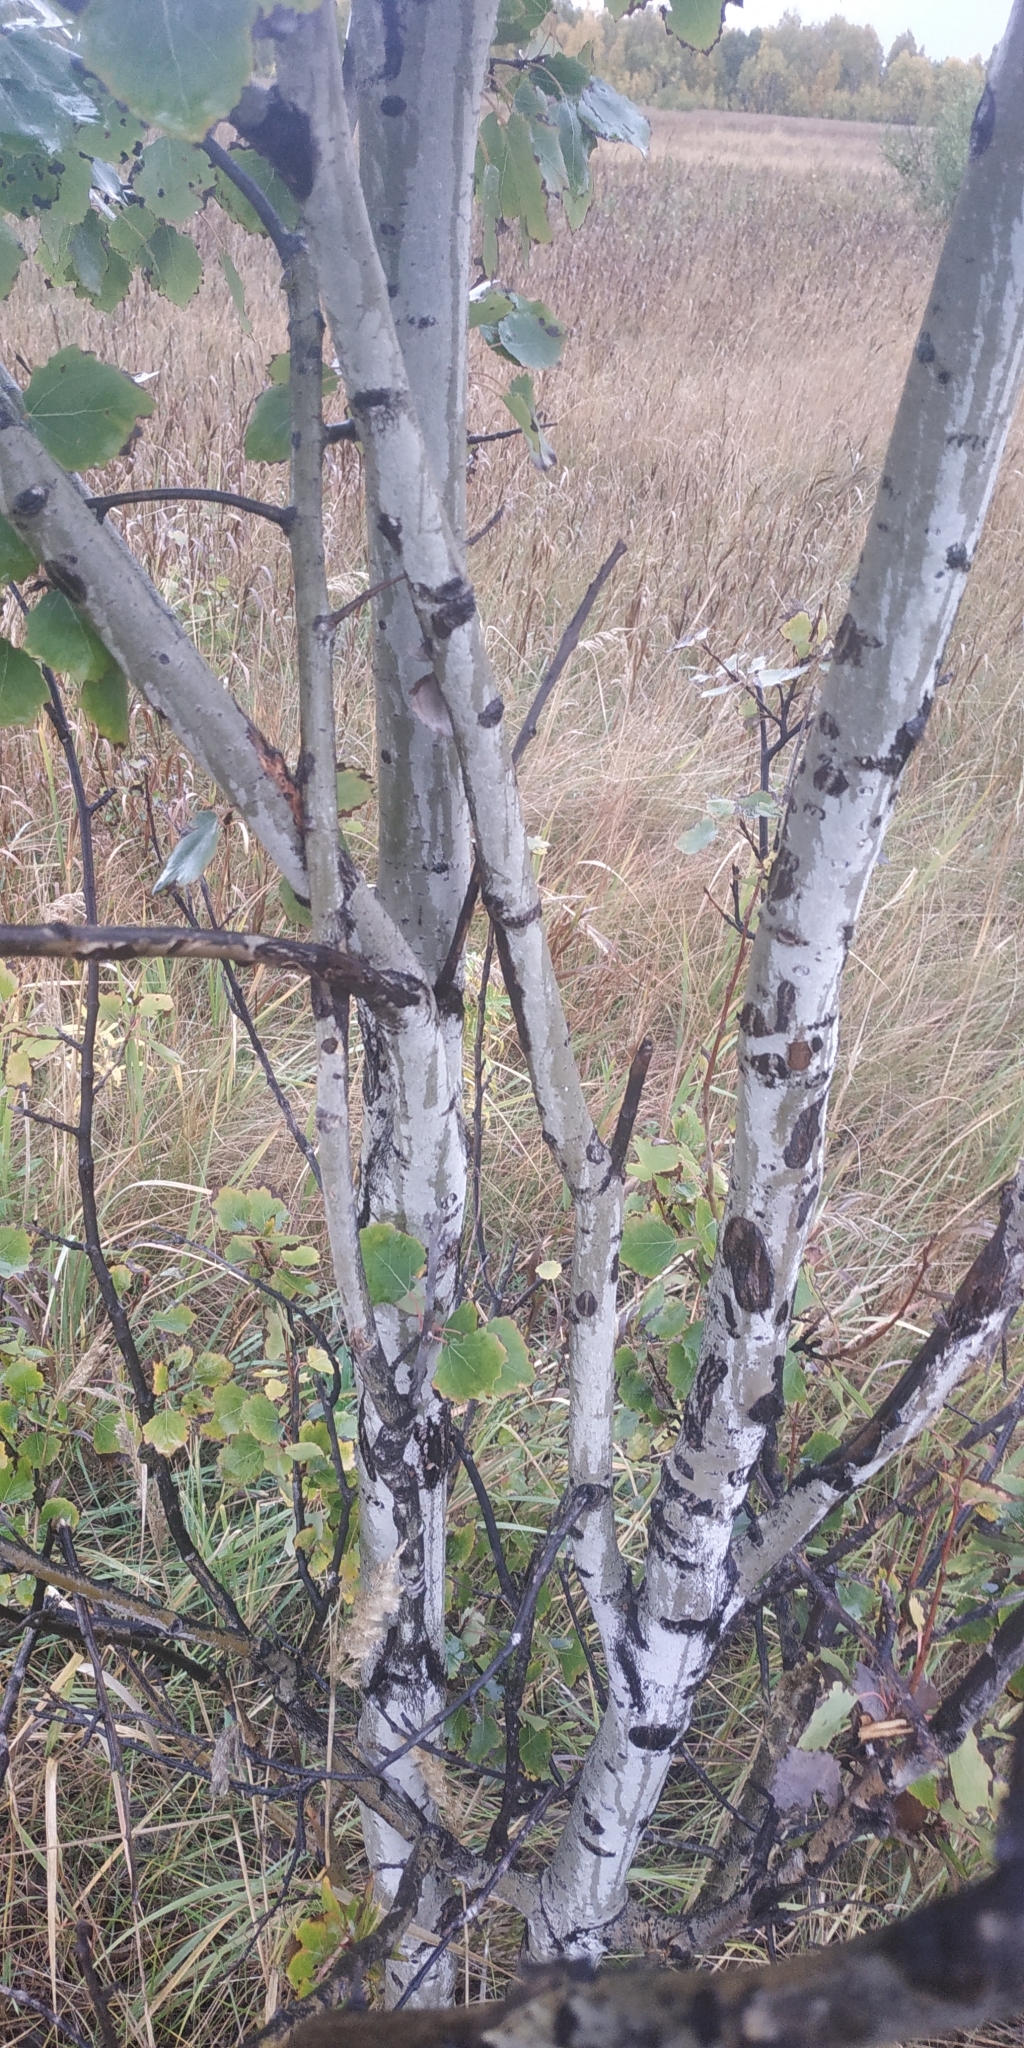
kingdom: Plantae
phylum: Tracheophyta
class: Magnoliopsida
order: Malpighiales
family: Salicaceae
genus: Populus
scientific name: Populus tremula
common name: European aspen
